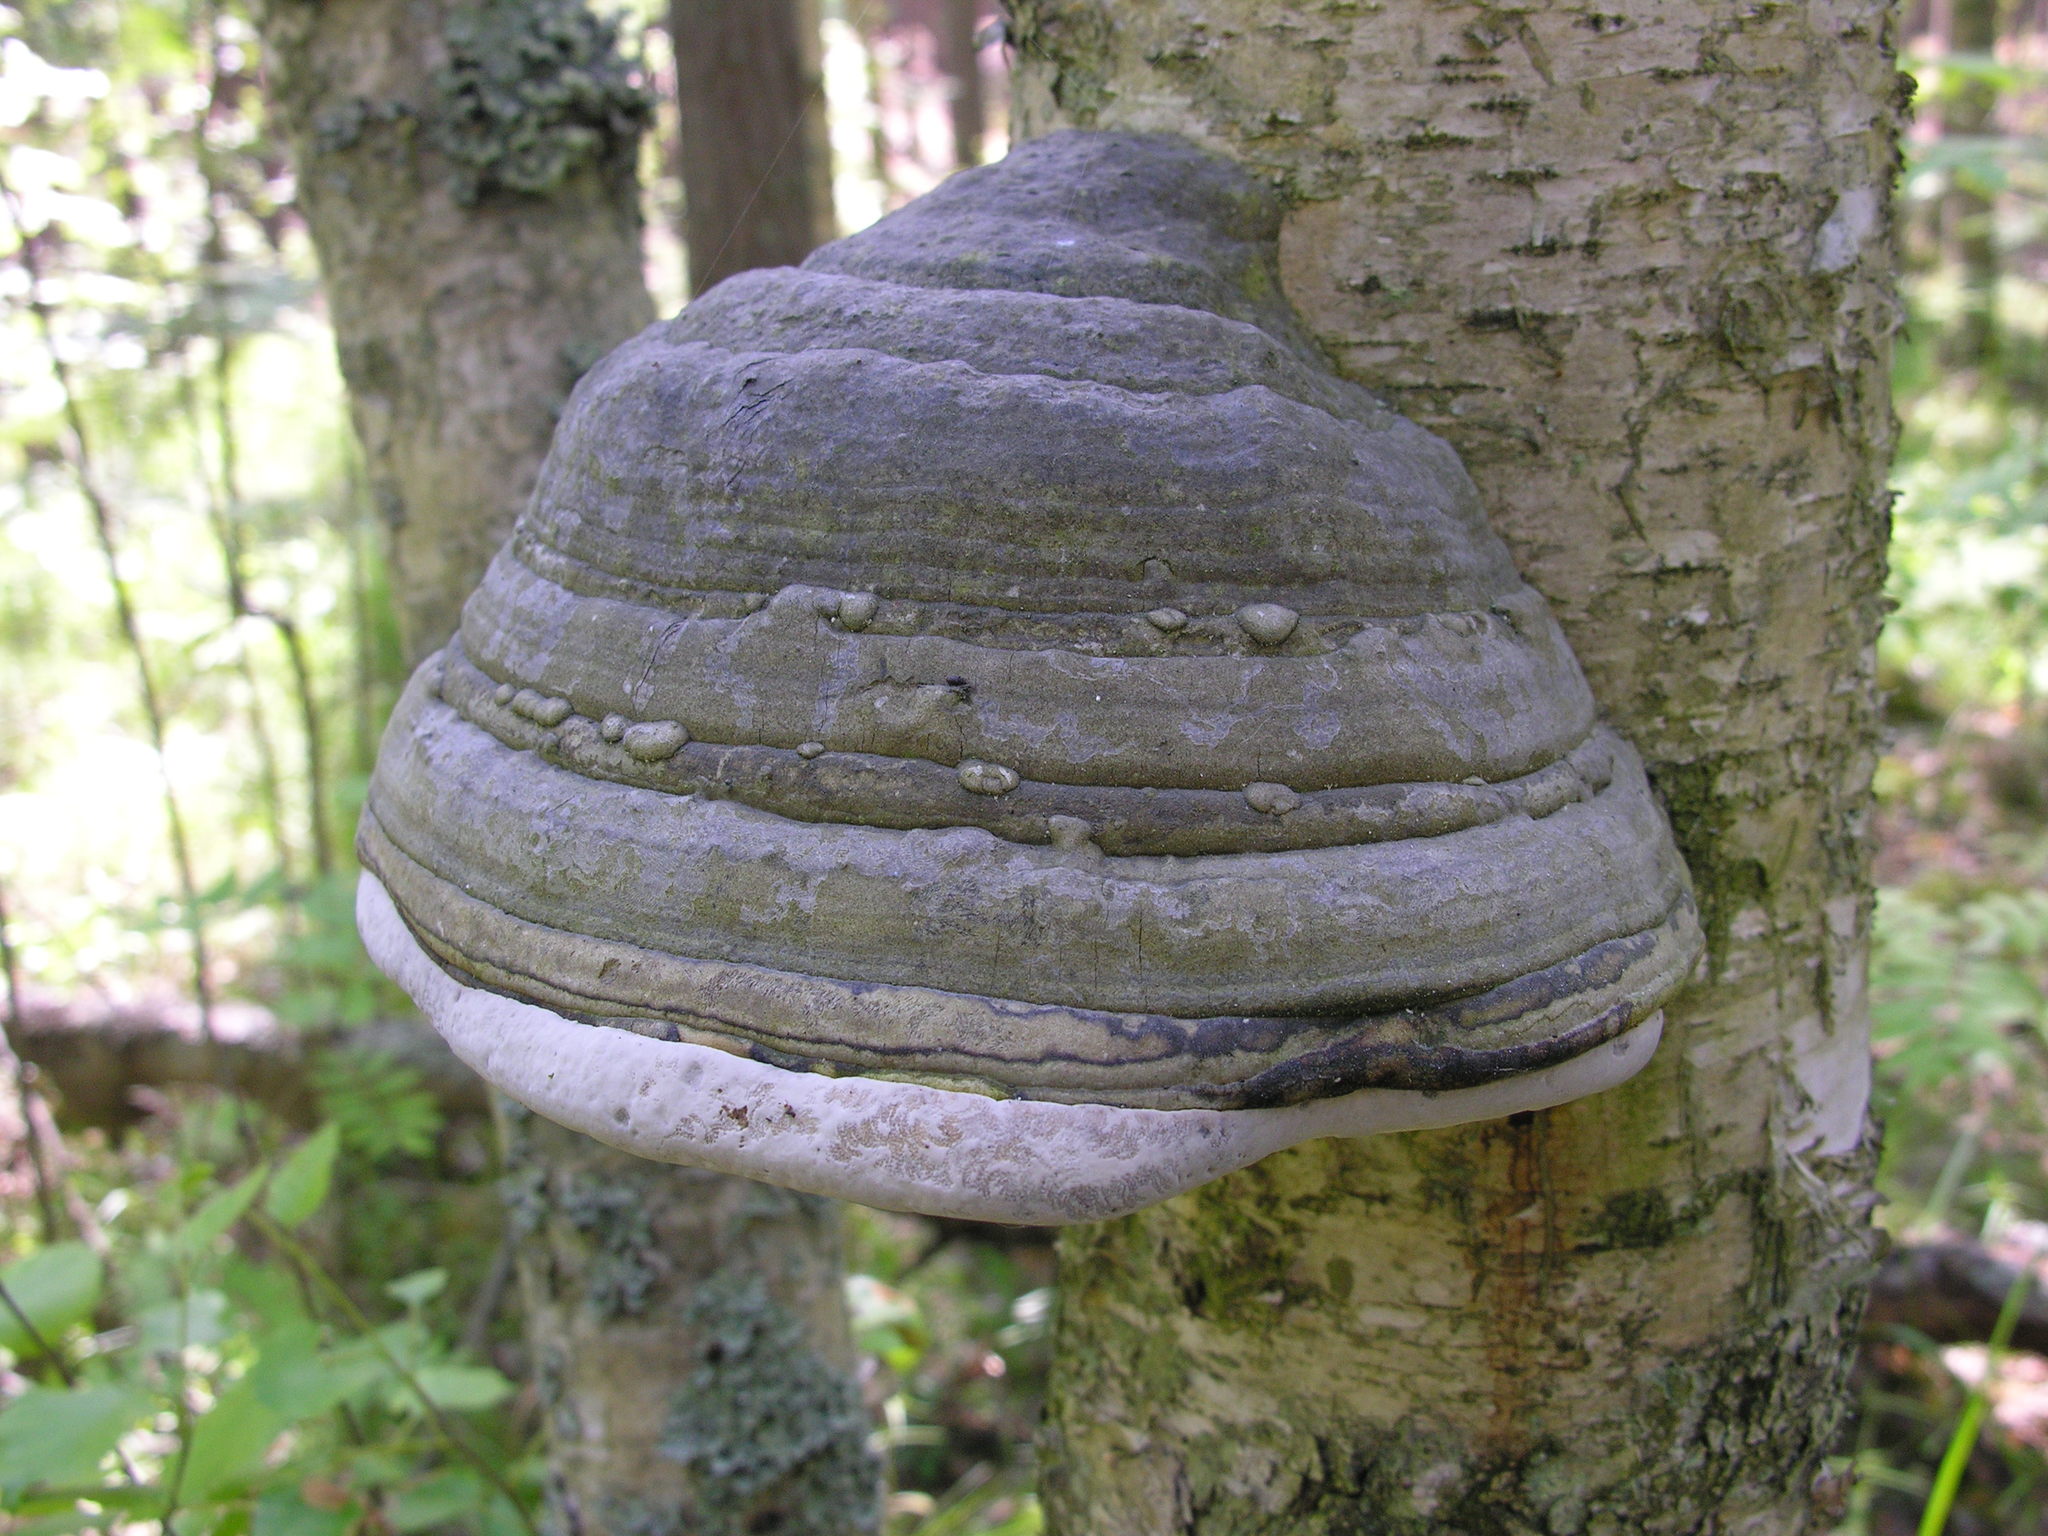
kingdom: Fungi
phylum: Basidiomycota
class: Agaricomycetes
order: Polyporales
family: Polyporaceae
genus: Fomes
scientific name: Fomes fomentarius
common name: Hoof fungus
